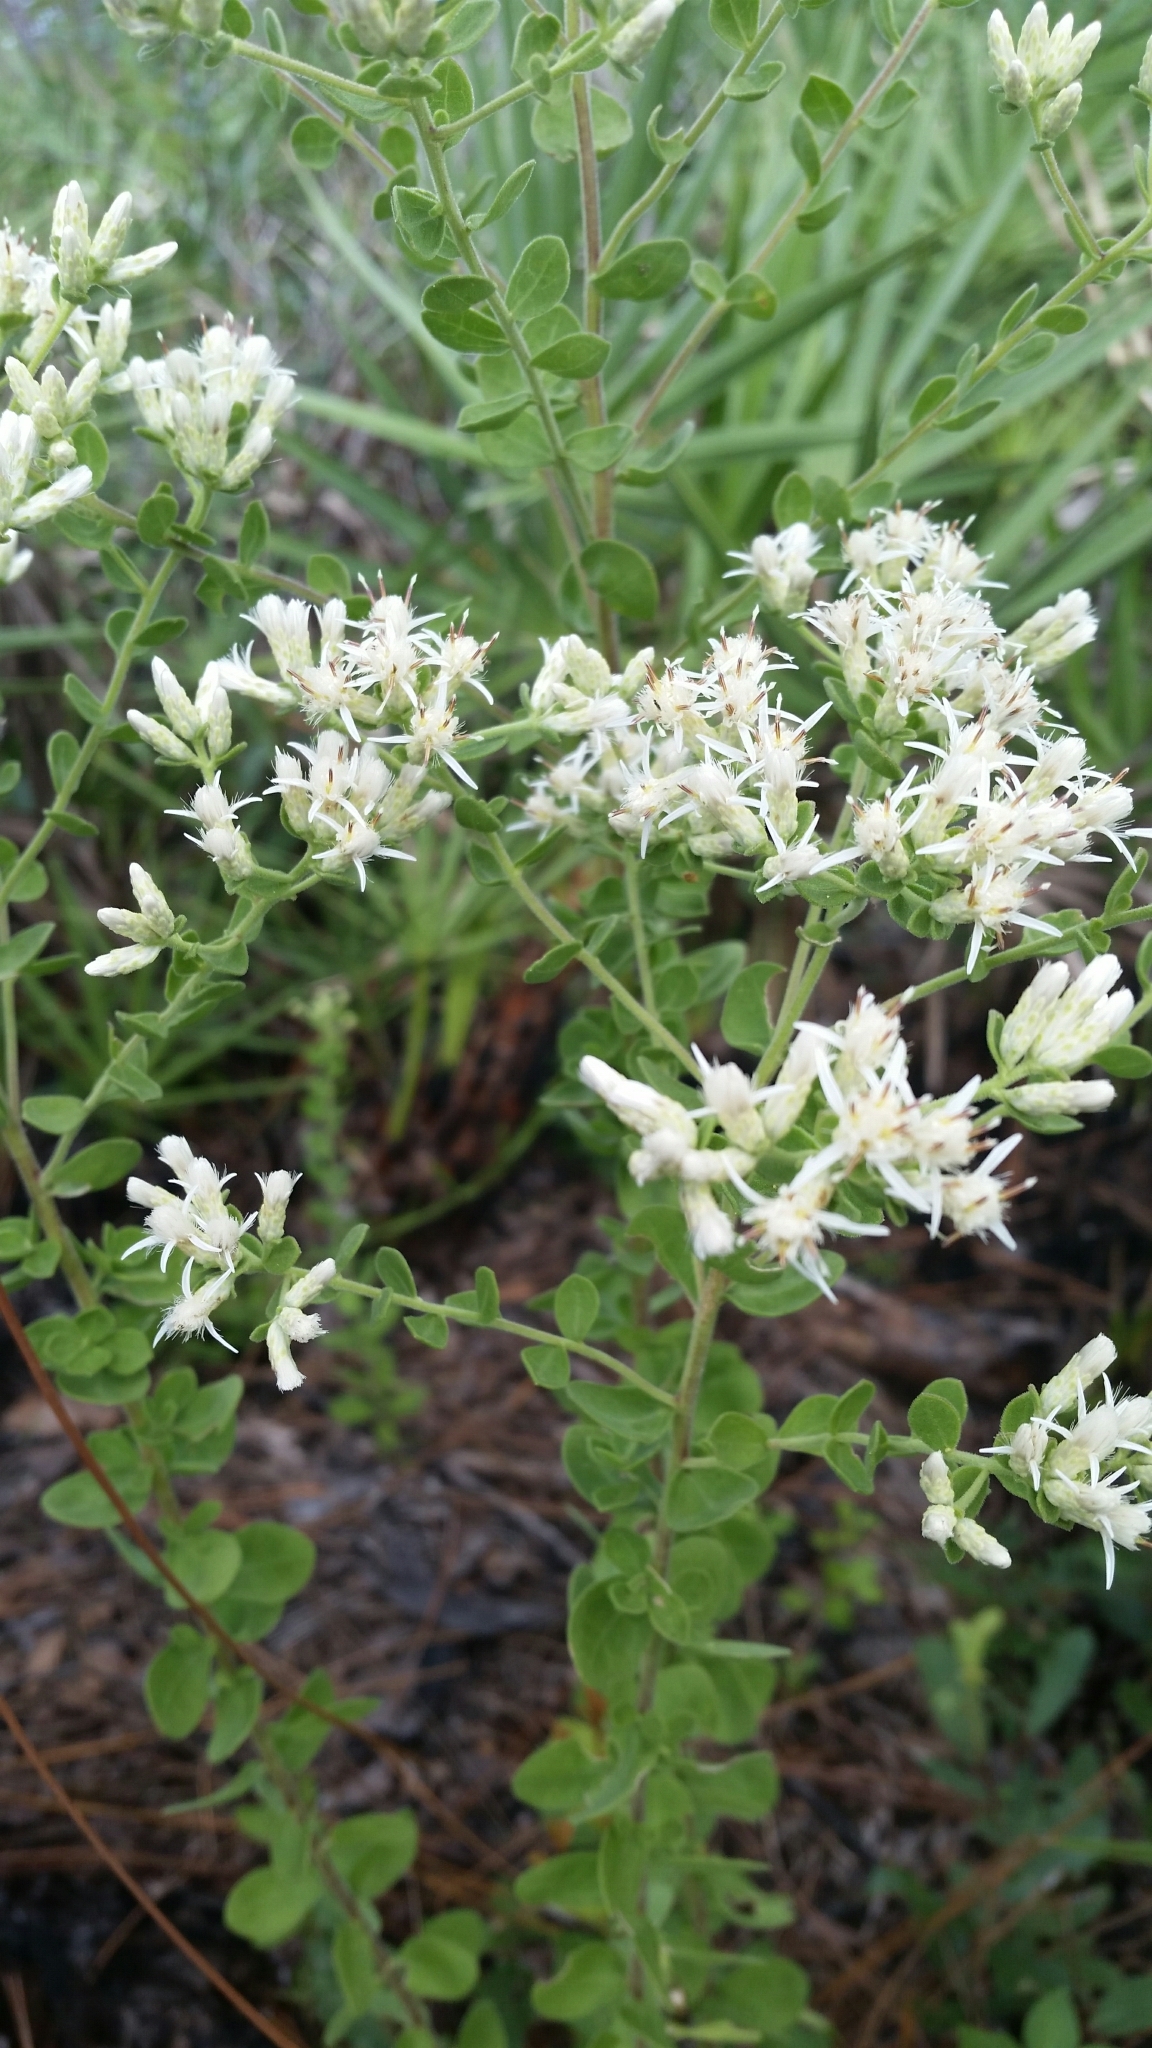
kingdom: Plantae
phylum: Tracheophyta
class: Magnoliopsida
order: Asterales
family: Asteraceae
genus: Sericocarpus
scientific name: Sericocarpus tortifolius
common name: Dixie aster
